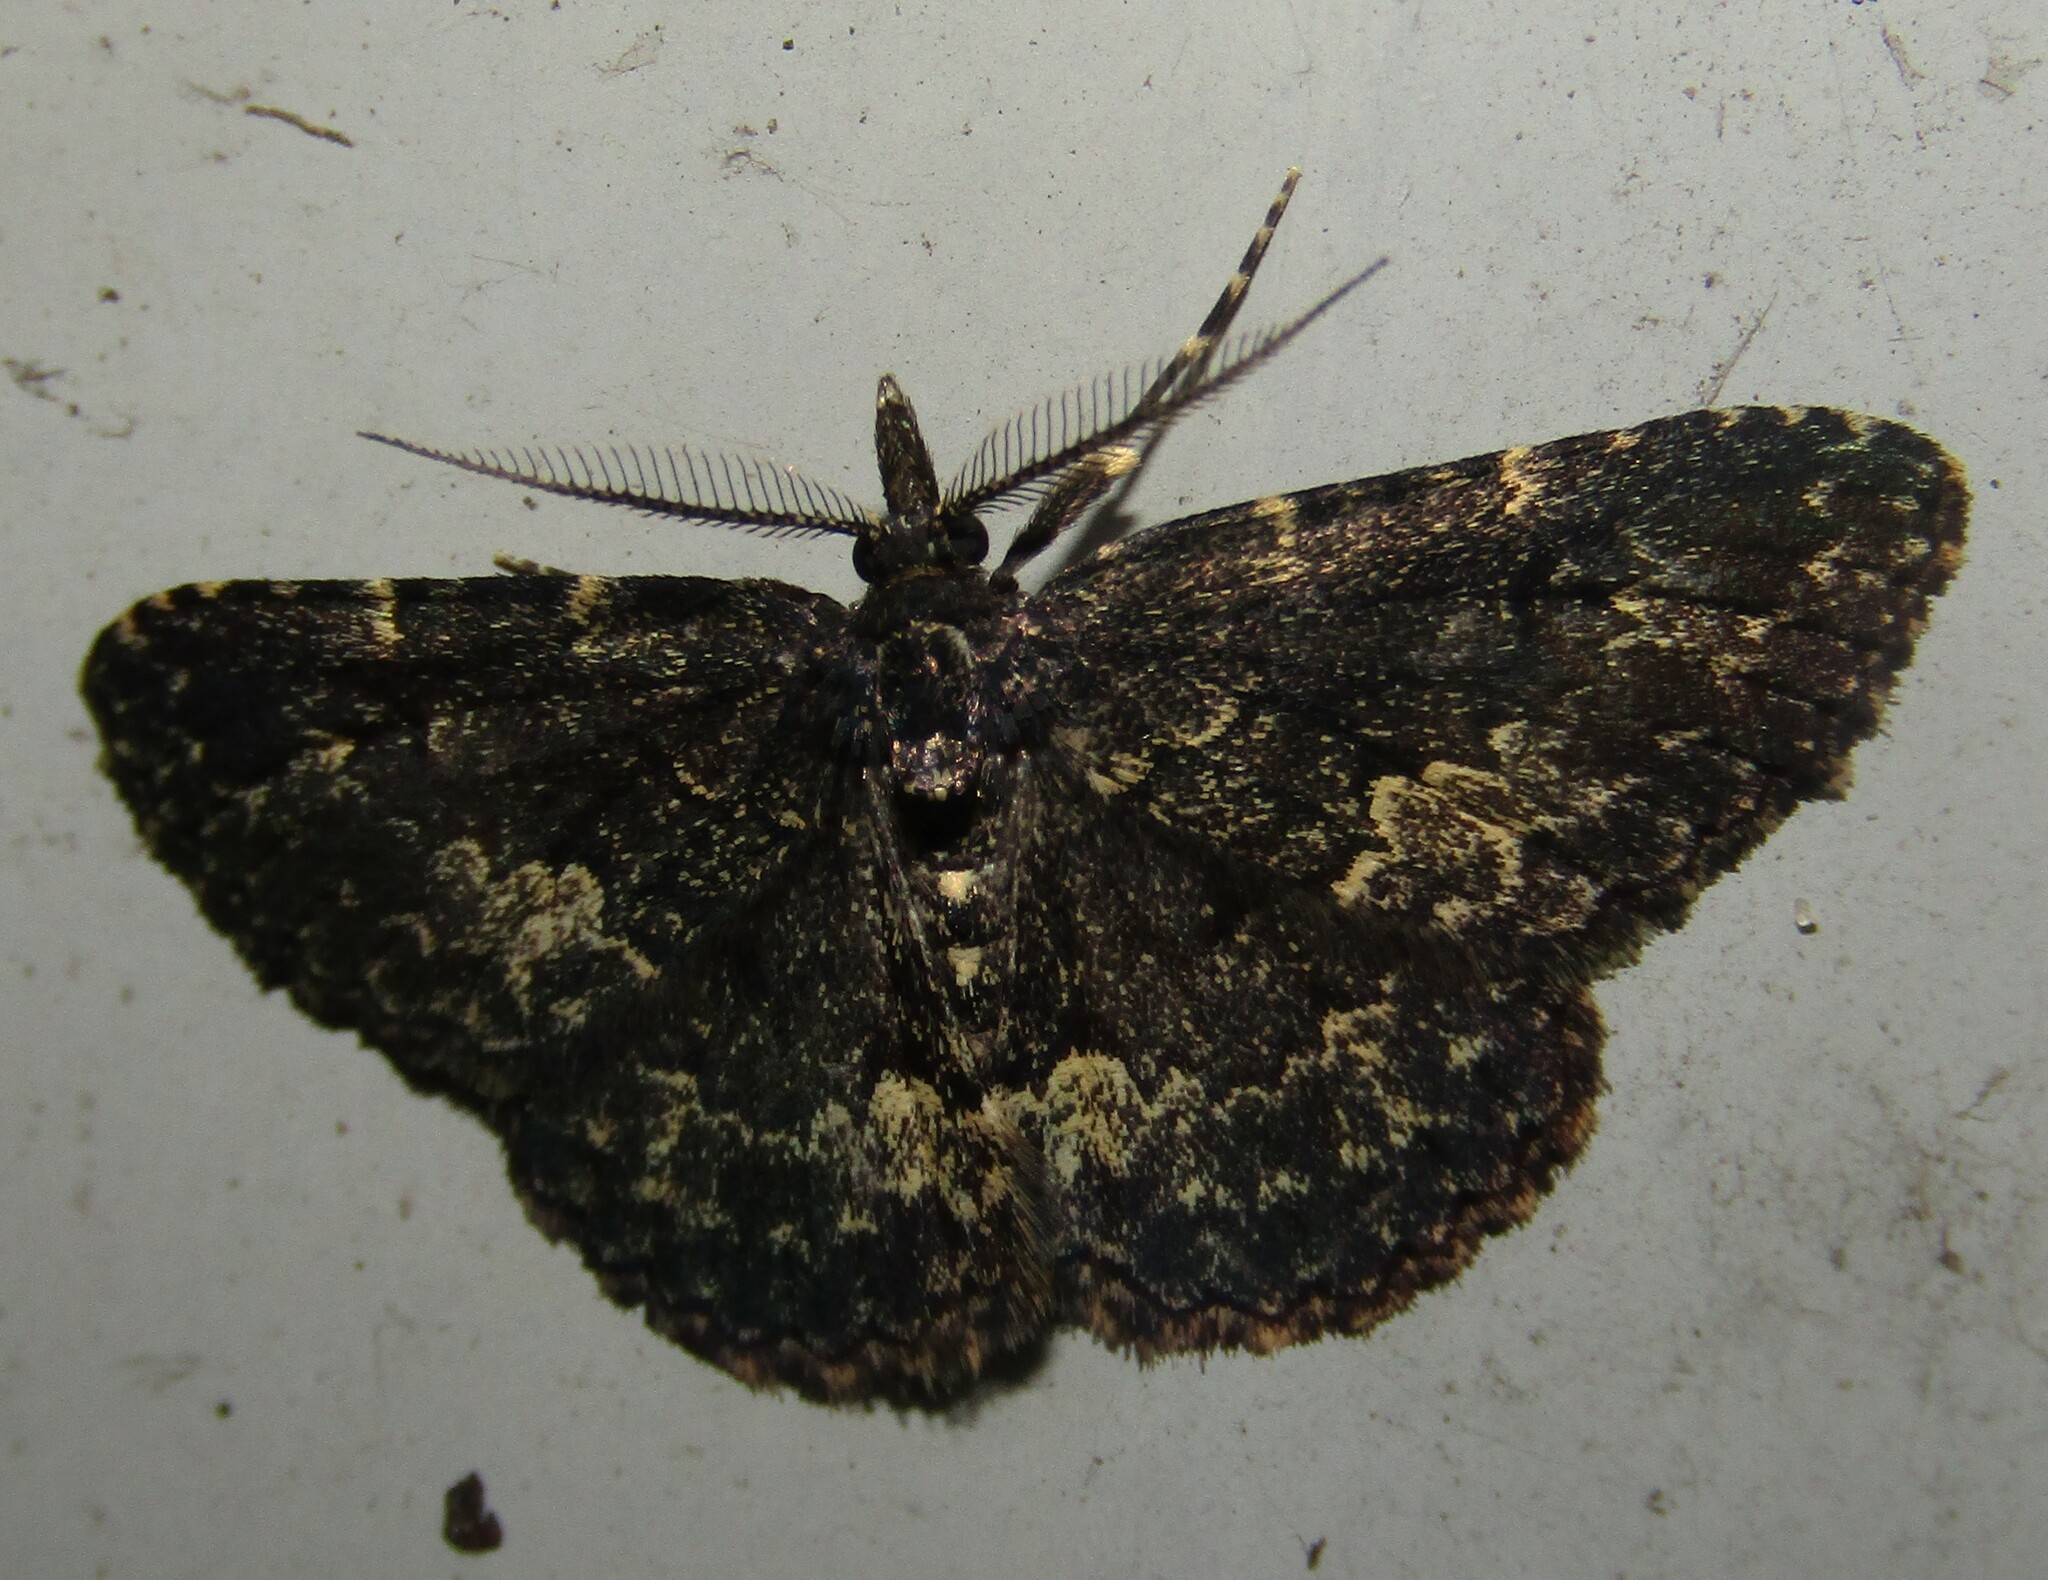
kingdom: Animalia
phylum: Arthropoda
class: Insecta
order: Lepidoptera
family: Erebidae
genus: Parascotia
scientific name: Parascotia fuliginaria
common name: Waved black
